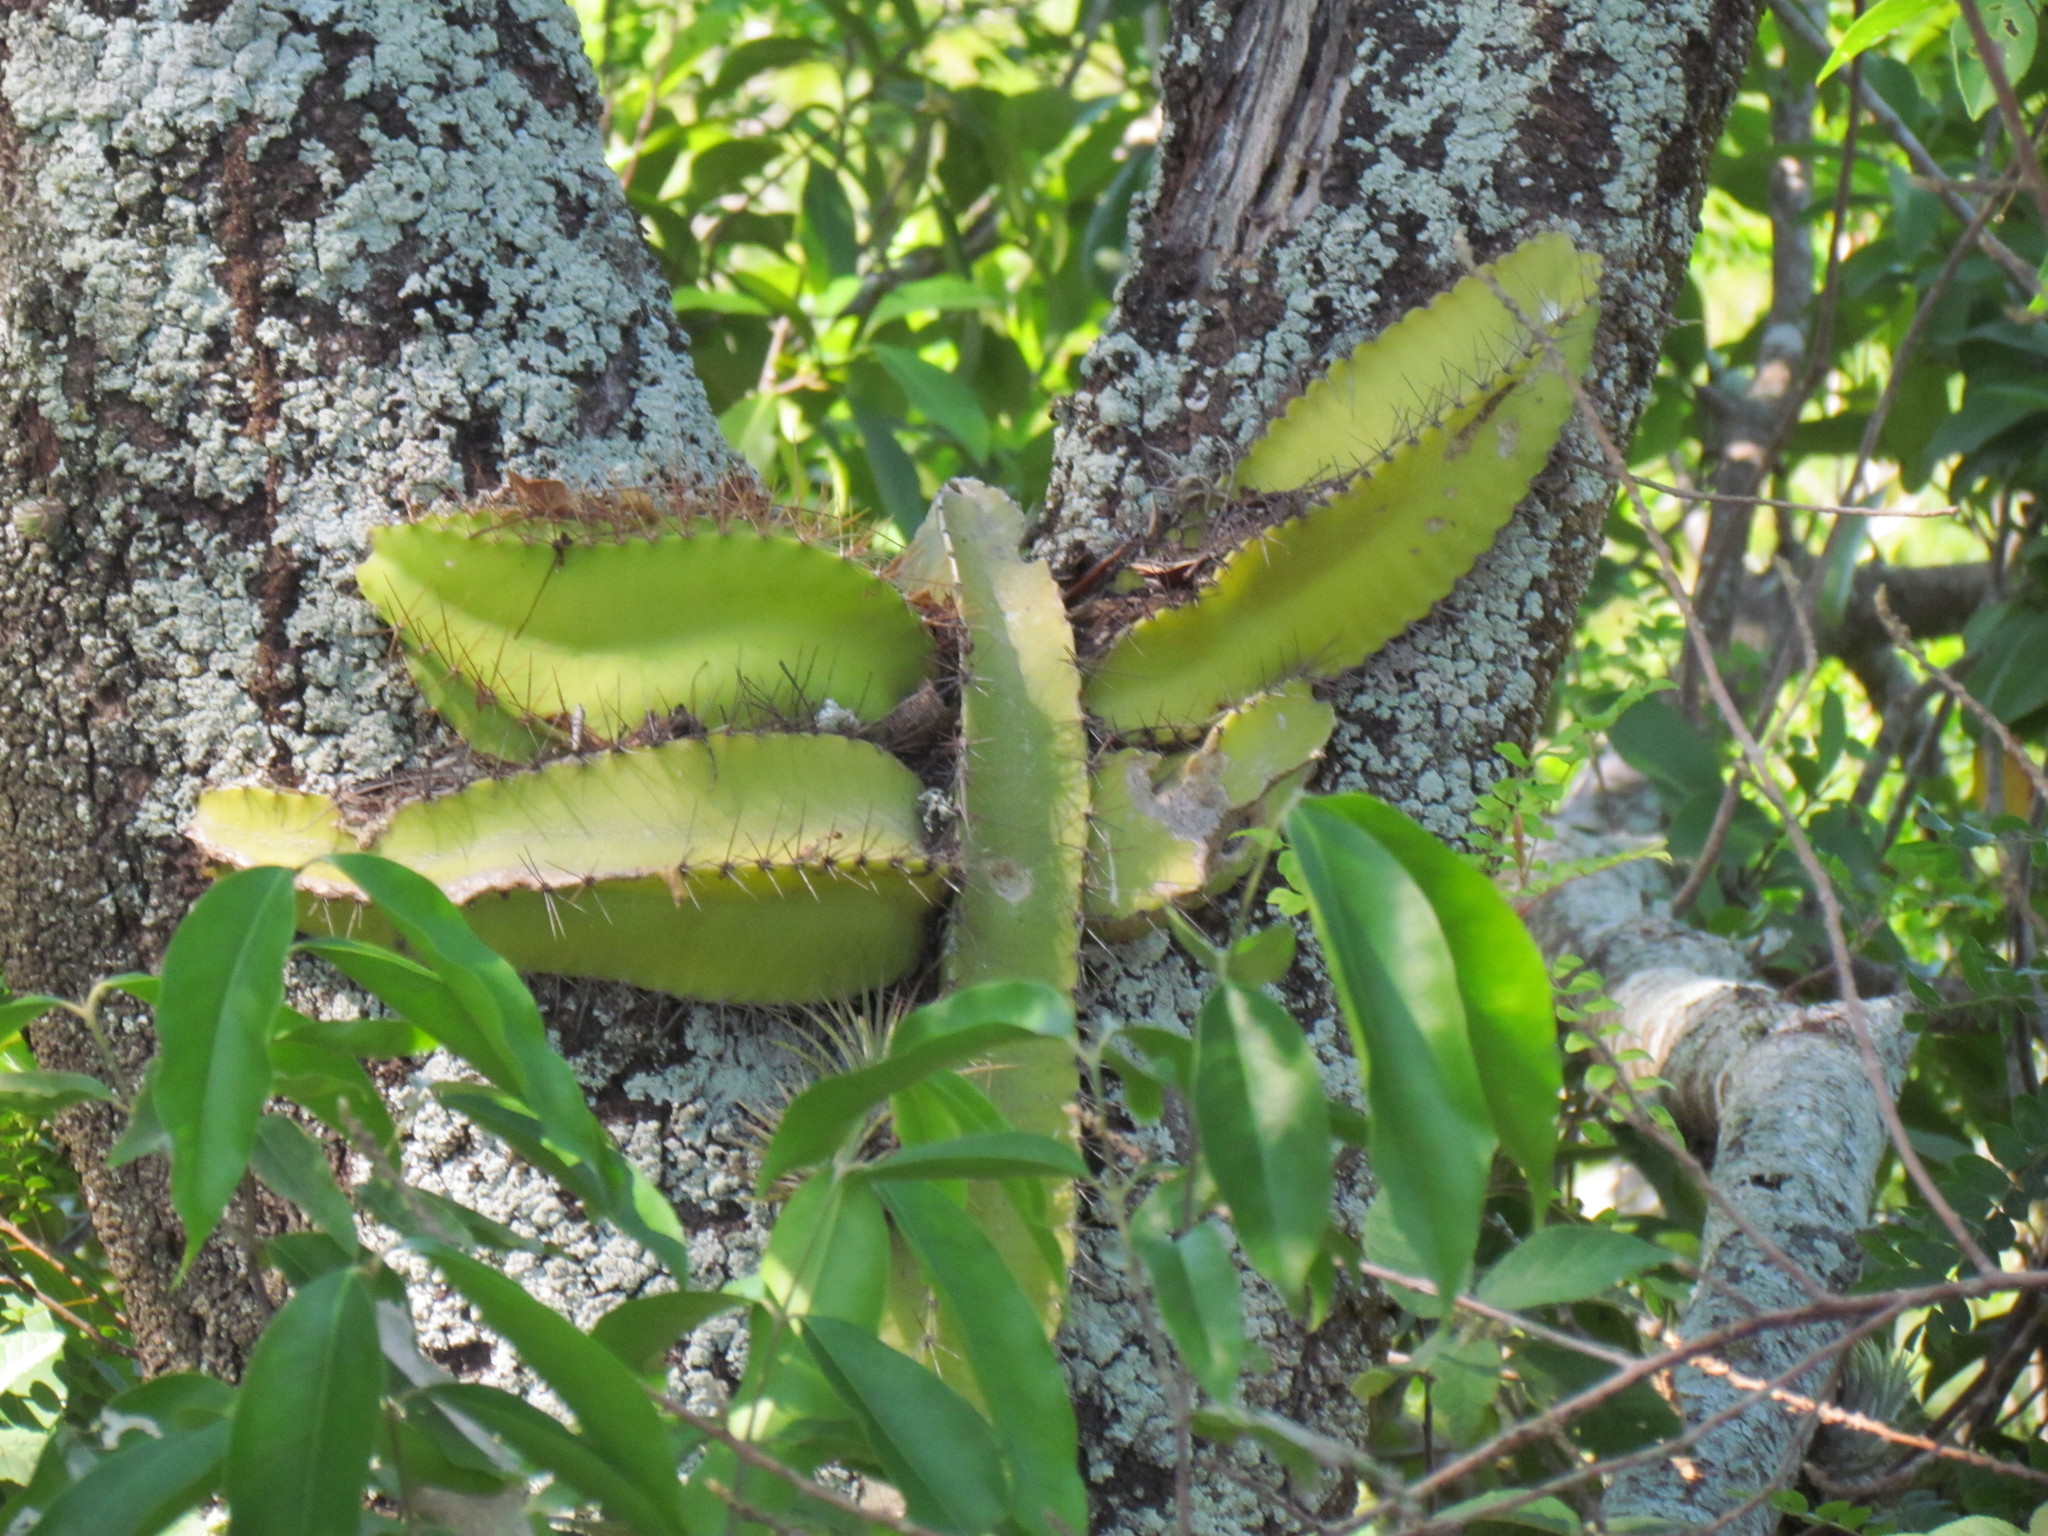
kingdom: Plantae
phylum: Tracheophyta
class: Magnoliopsida
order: Caryophyllales
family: Cactaceae
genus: Deamia
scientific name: Deamia testudo
